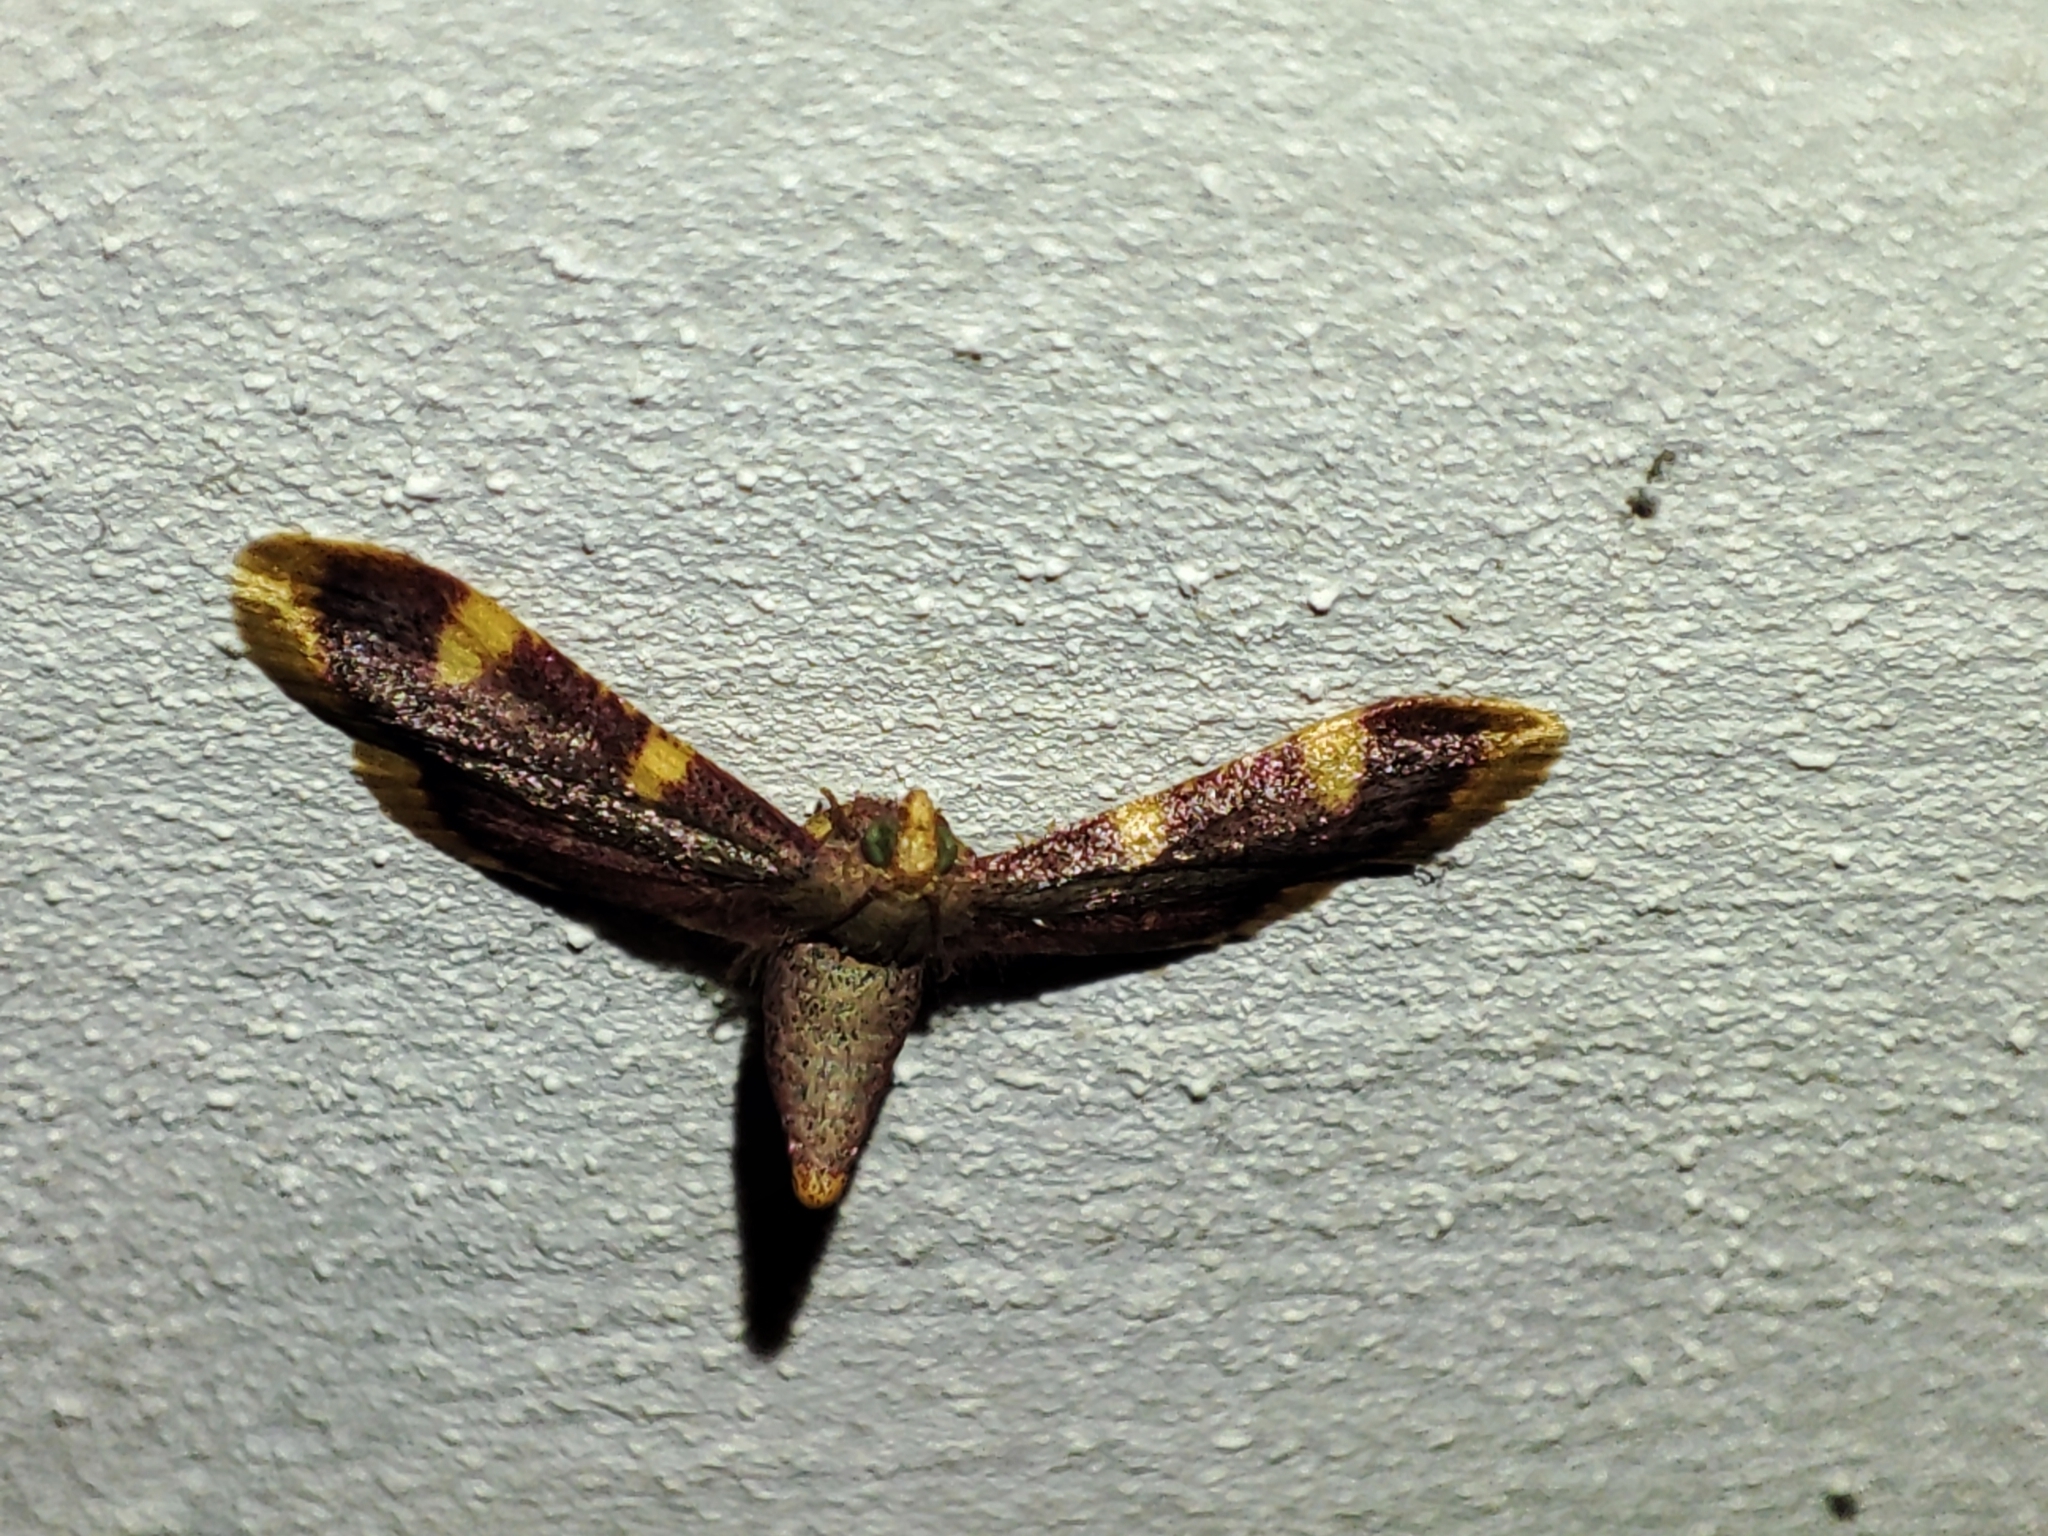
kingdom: Animalia
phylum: Arthropoda
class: Insecta
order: Lepidoptera
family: Pyralidae
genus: Hypsopygia
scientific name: Hypsopygia costalis
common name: Gold triangle
